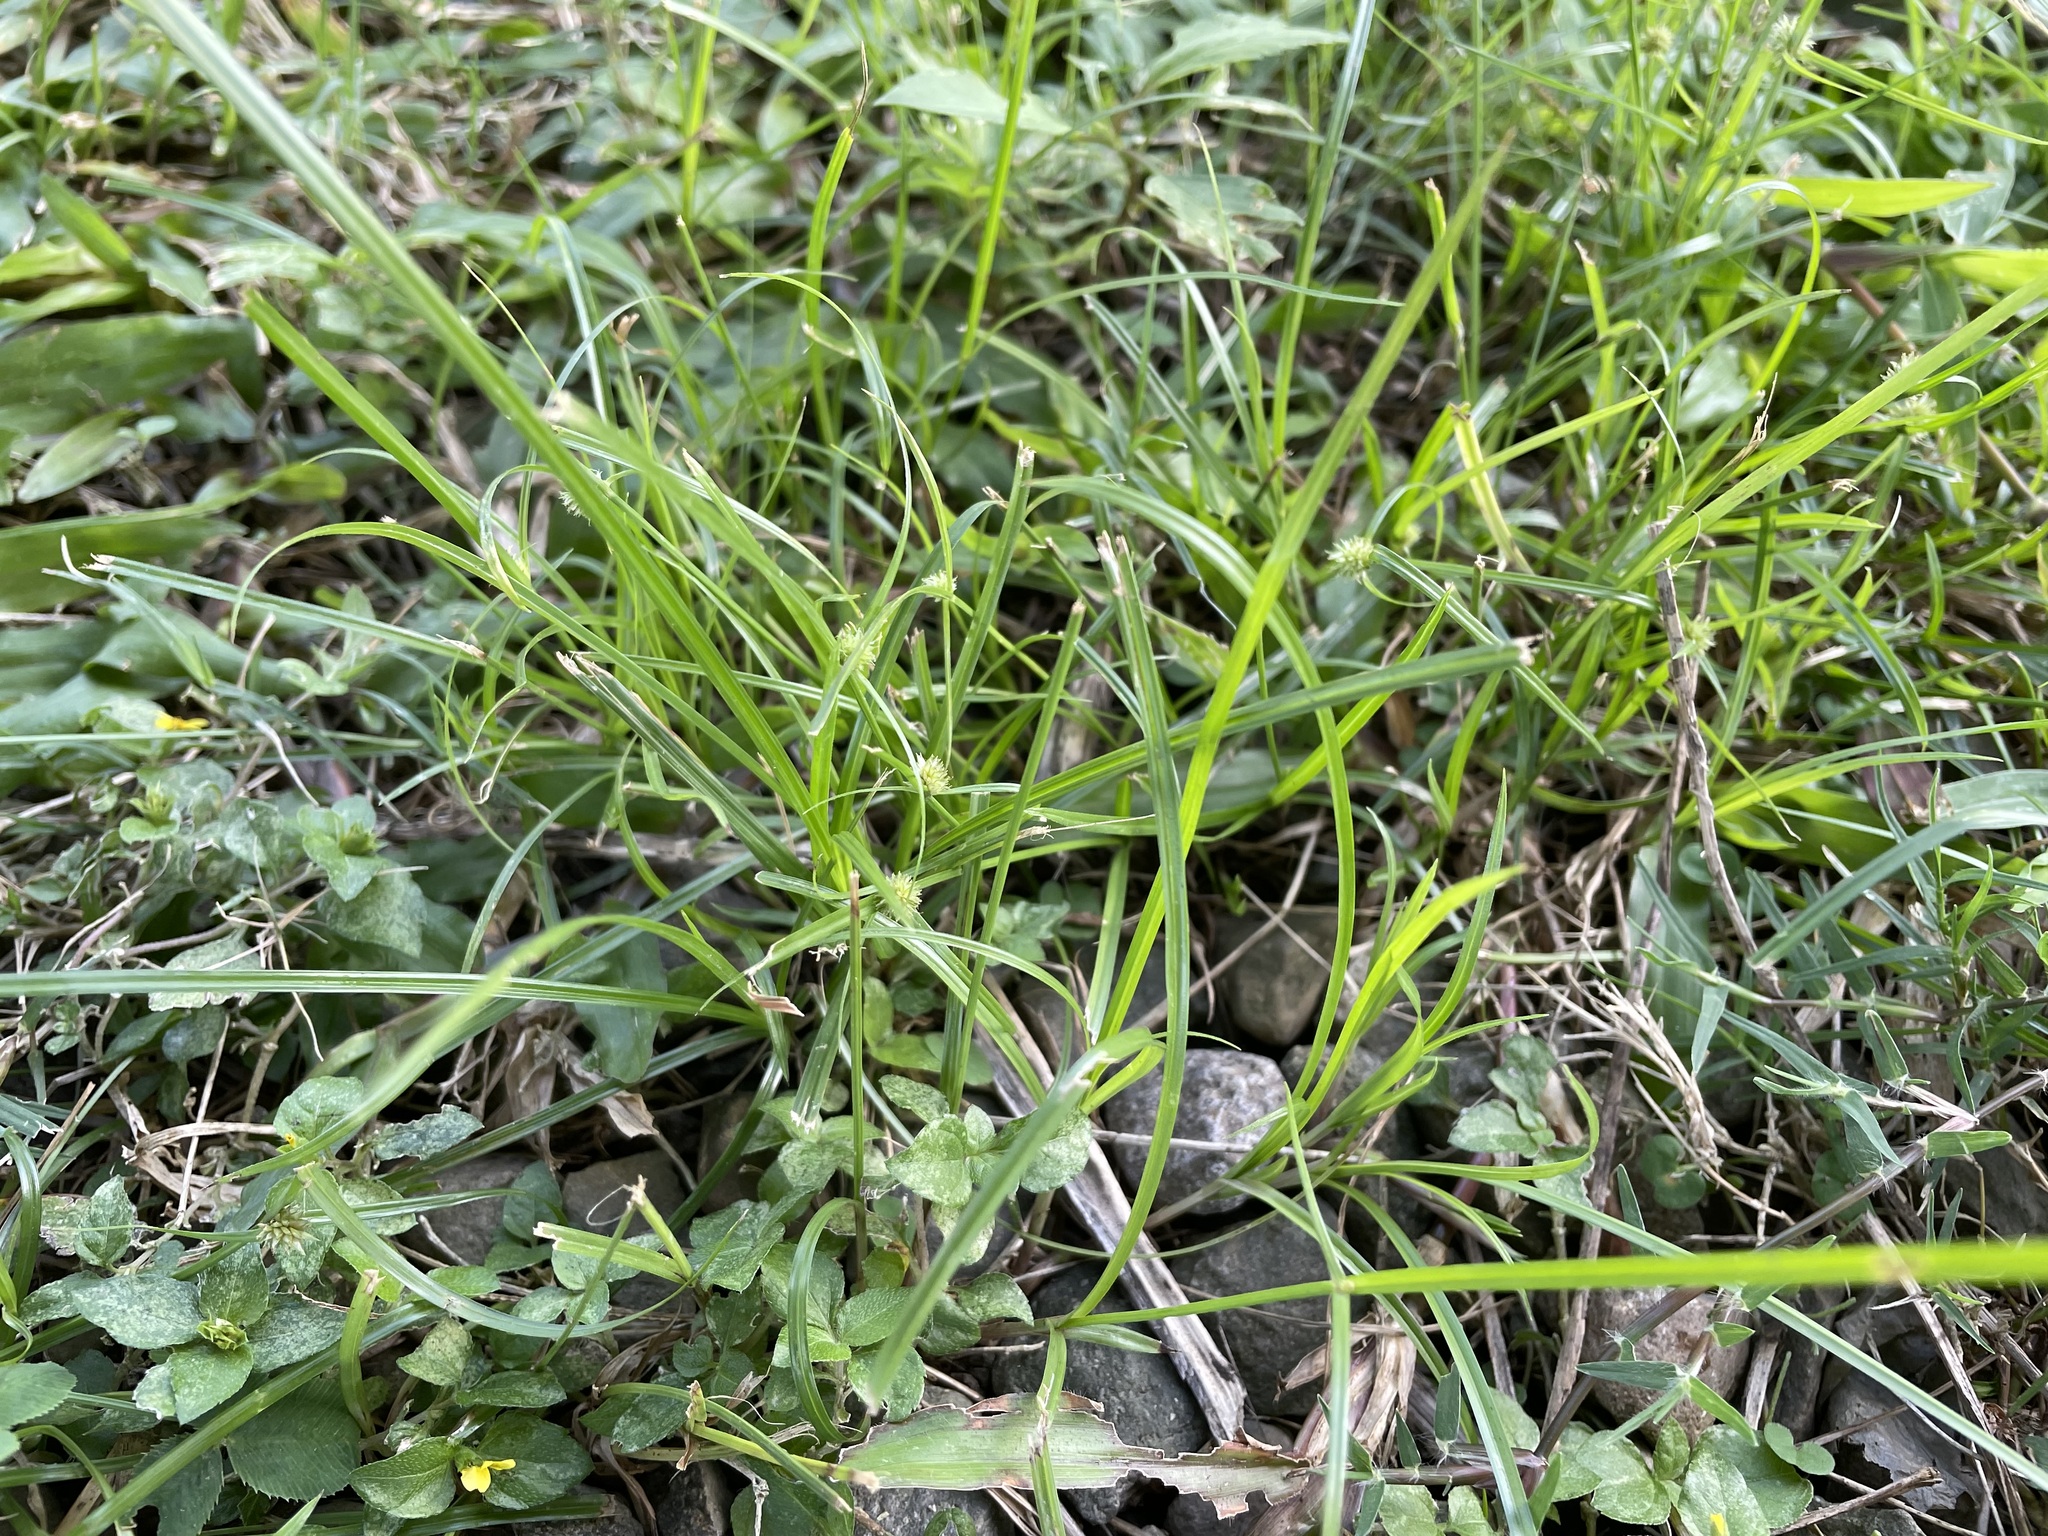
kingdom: Plantae
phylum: Tracheophyta
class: Liliopsida
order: Poales
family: Cyperaceae
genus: Cyperus
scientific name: Cyperus brevifolius
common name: Globe kyllinga
